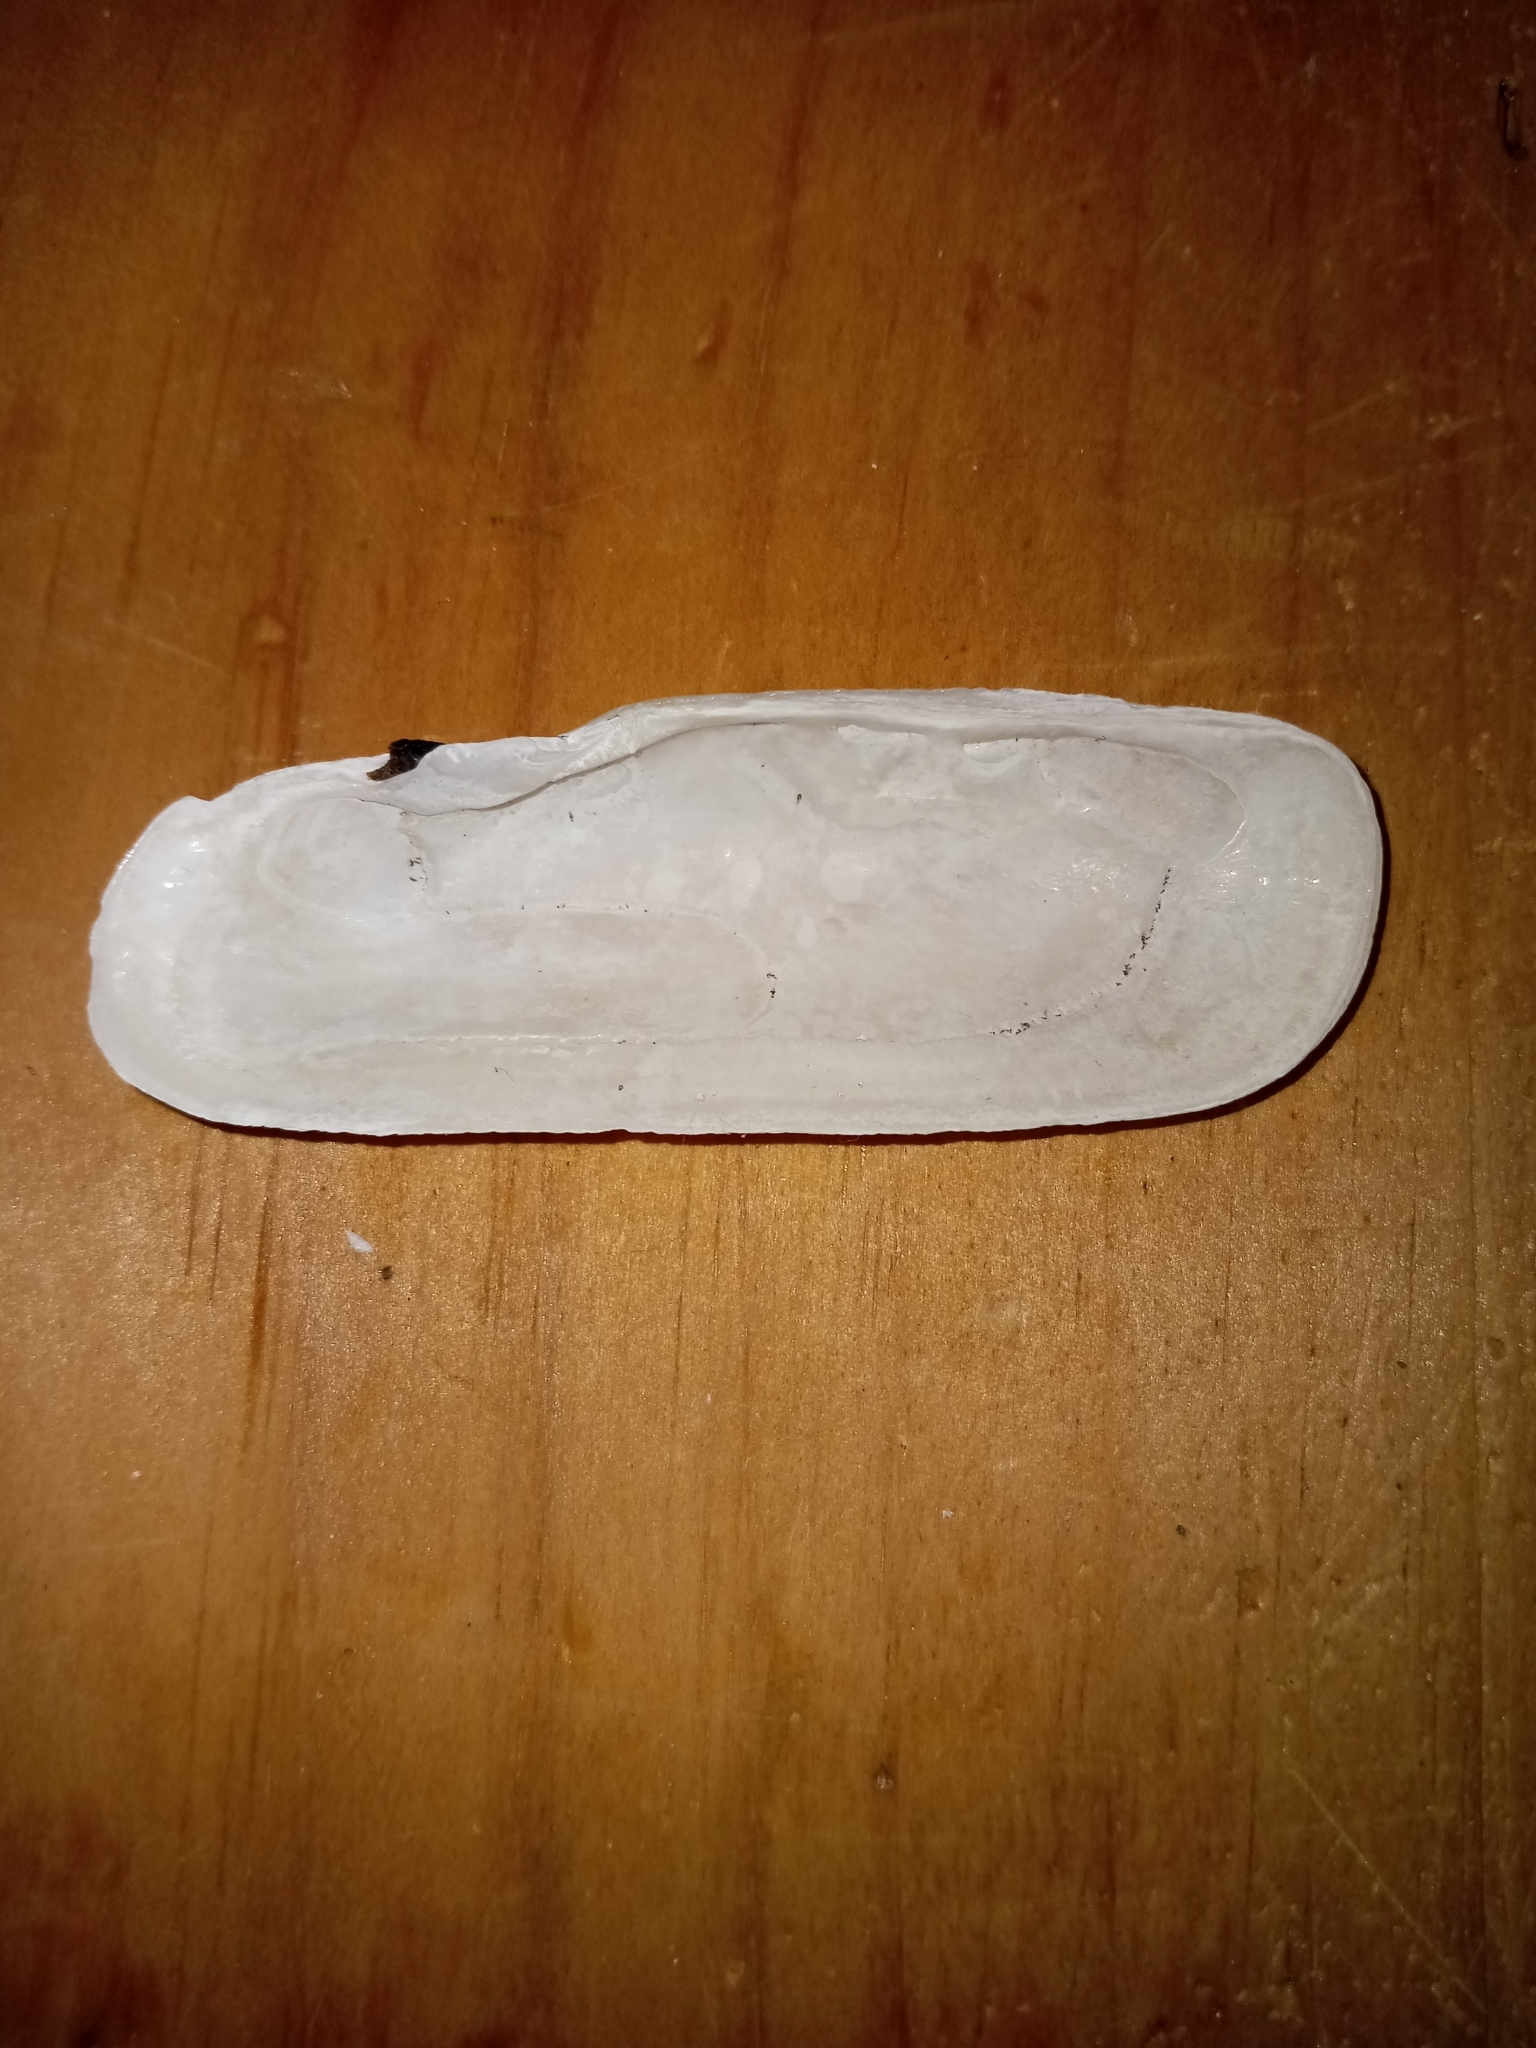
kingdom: Animalia
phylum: Mollusca
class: Bivalvia
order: Cardiida
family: Solecurtidae
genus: Tagelus
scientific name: Tagelus plebeius
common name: Stout tagelus
